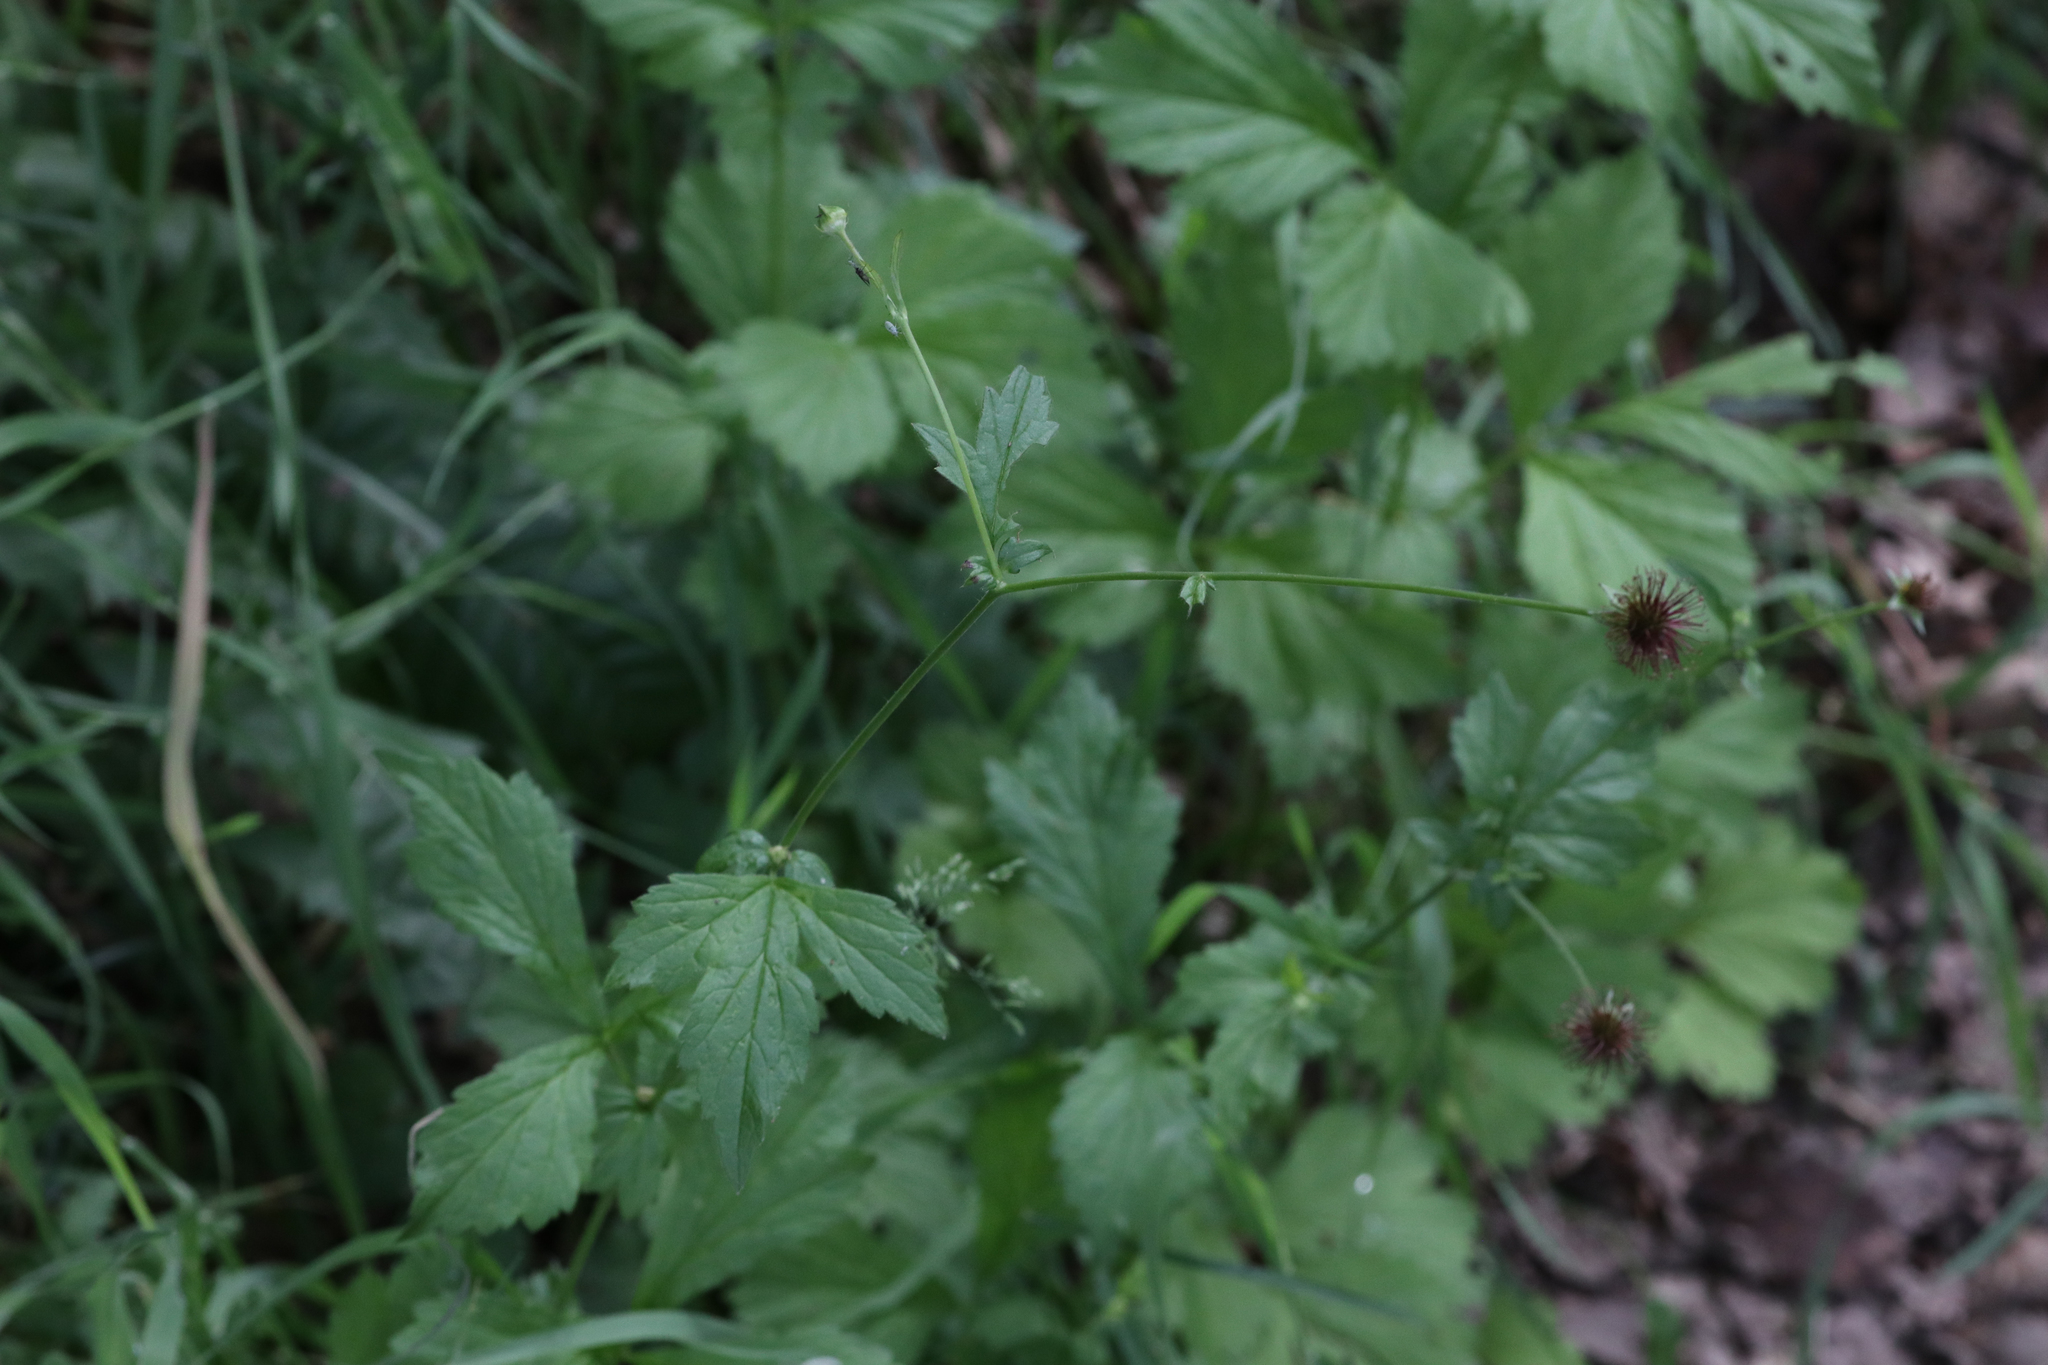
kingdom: Plantae
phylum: Tracheophyta
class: Magnoliopsida
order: Rosales
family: Rosaceae
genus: Geum
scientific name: Geum urbanum
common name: Wood avens
